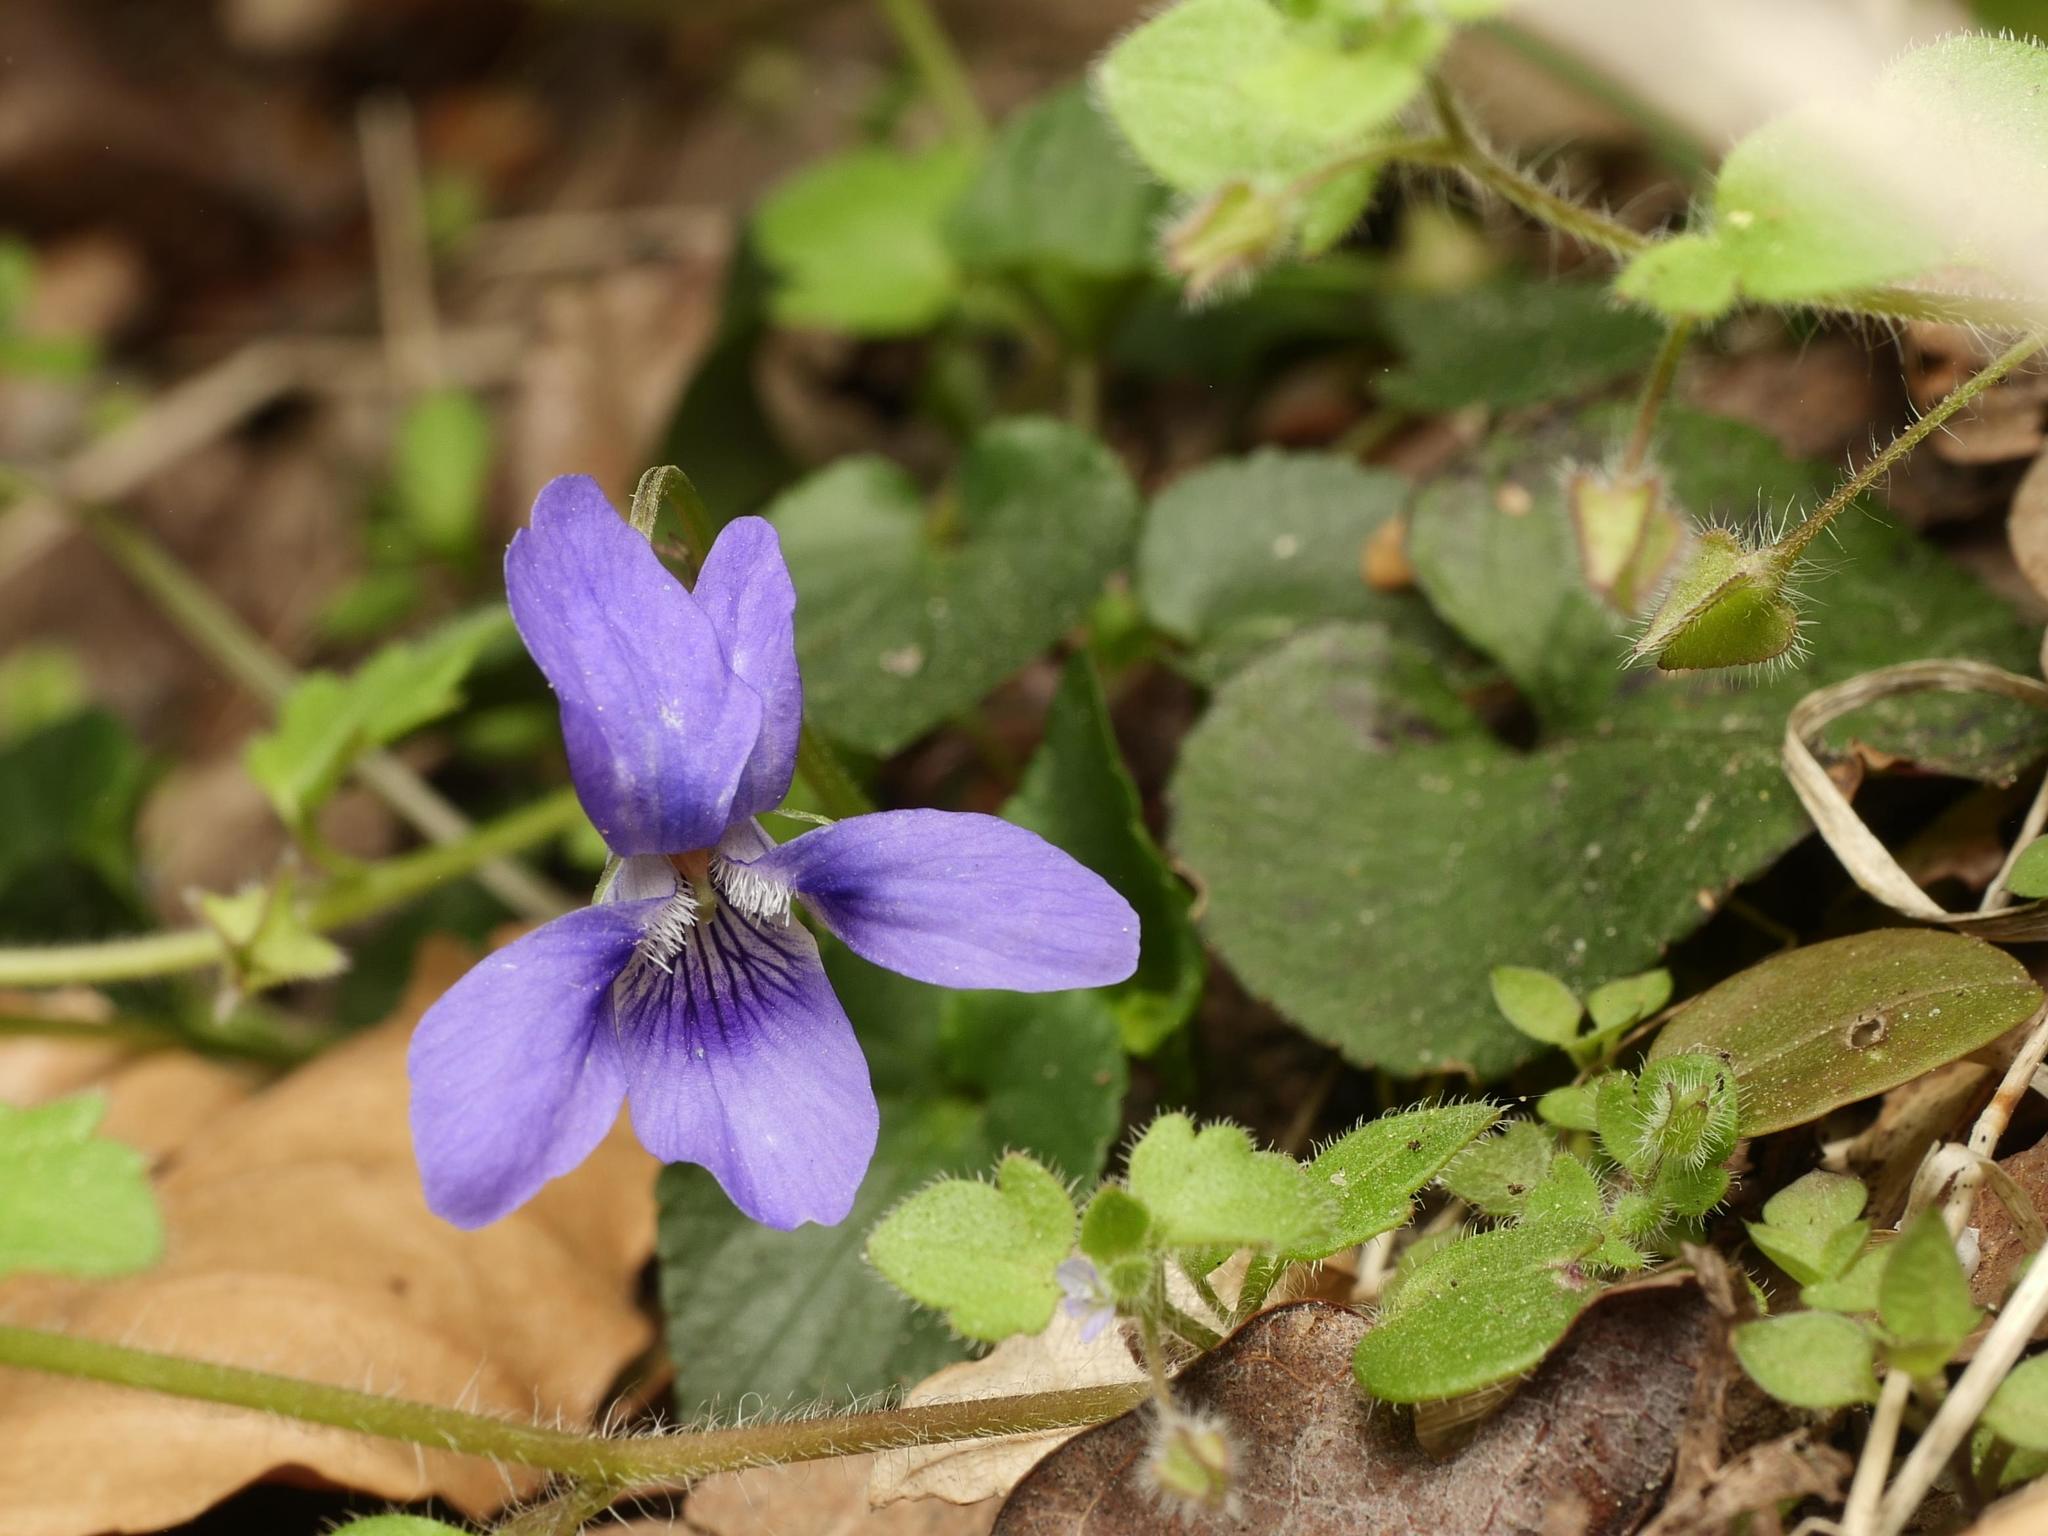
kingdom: Plantae
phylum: Tracheophyta
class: Magnoliopsida
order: Malpighiales
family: Violaceae
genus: Viola
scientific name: Viola reichenbachiana
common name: Early dog-violet
